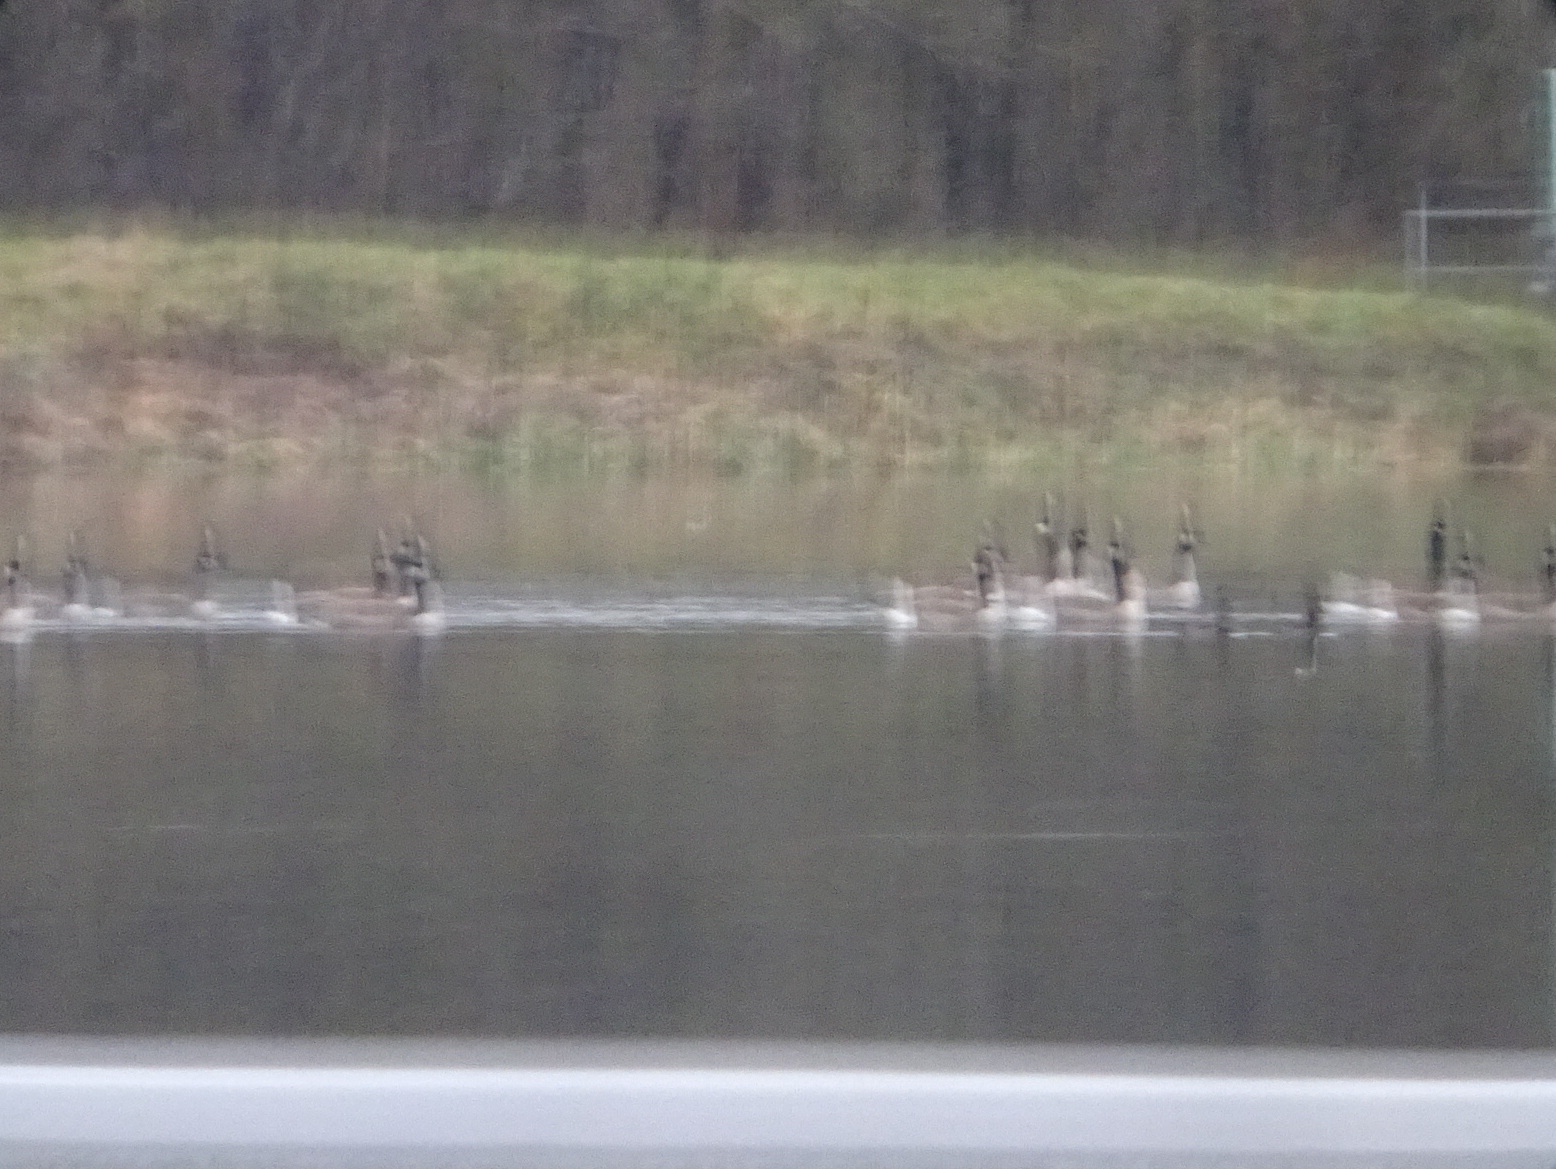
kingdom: Animalia
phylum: Chordata
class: Aves
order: Anseriformes
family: Anatidae
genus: Branta
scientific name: Branta canadensis
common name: Canada goose
